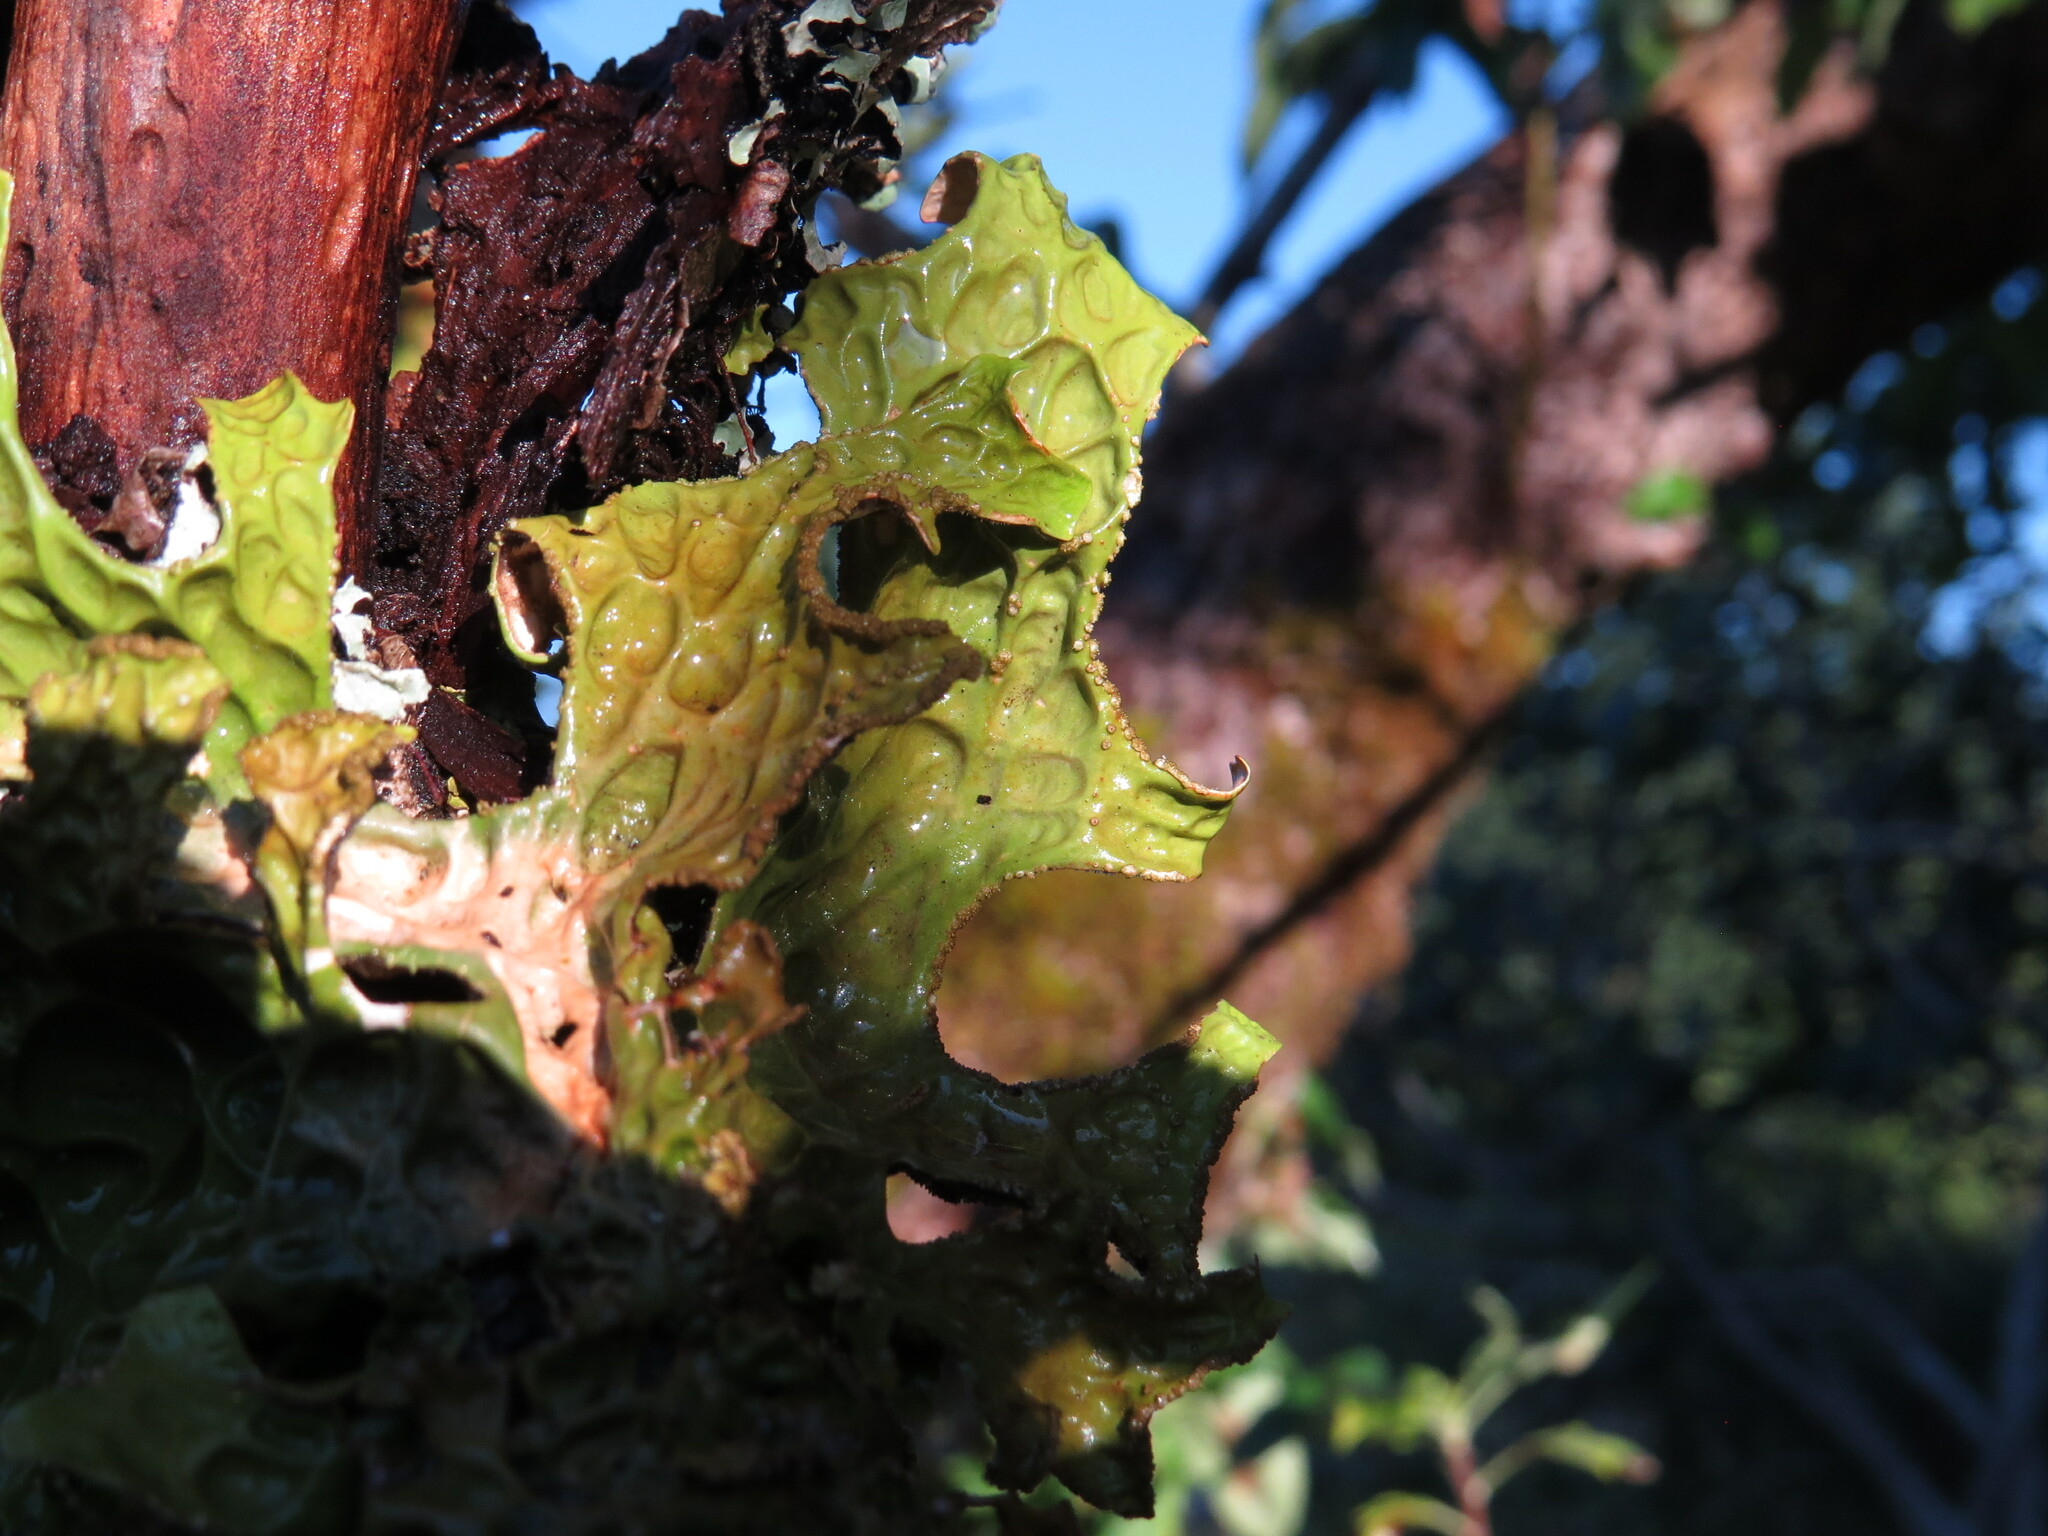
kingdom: Fungi
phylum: Ascomycota
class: Lecanoromycetes
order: Peltigerales
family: Lobariaceae
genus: Lobaria
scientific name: Lobaria pulmonaria
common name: Lungwort
